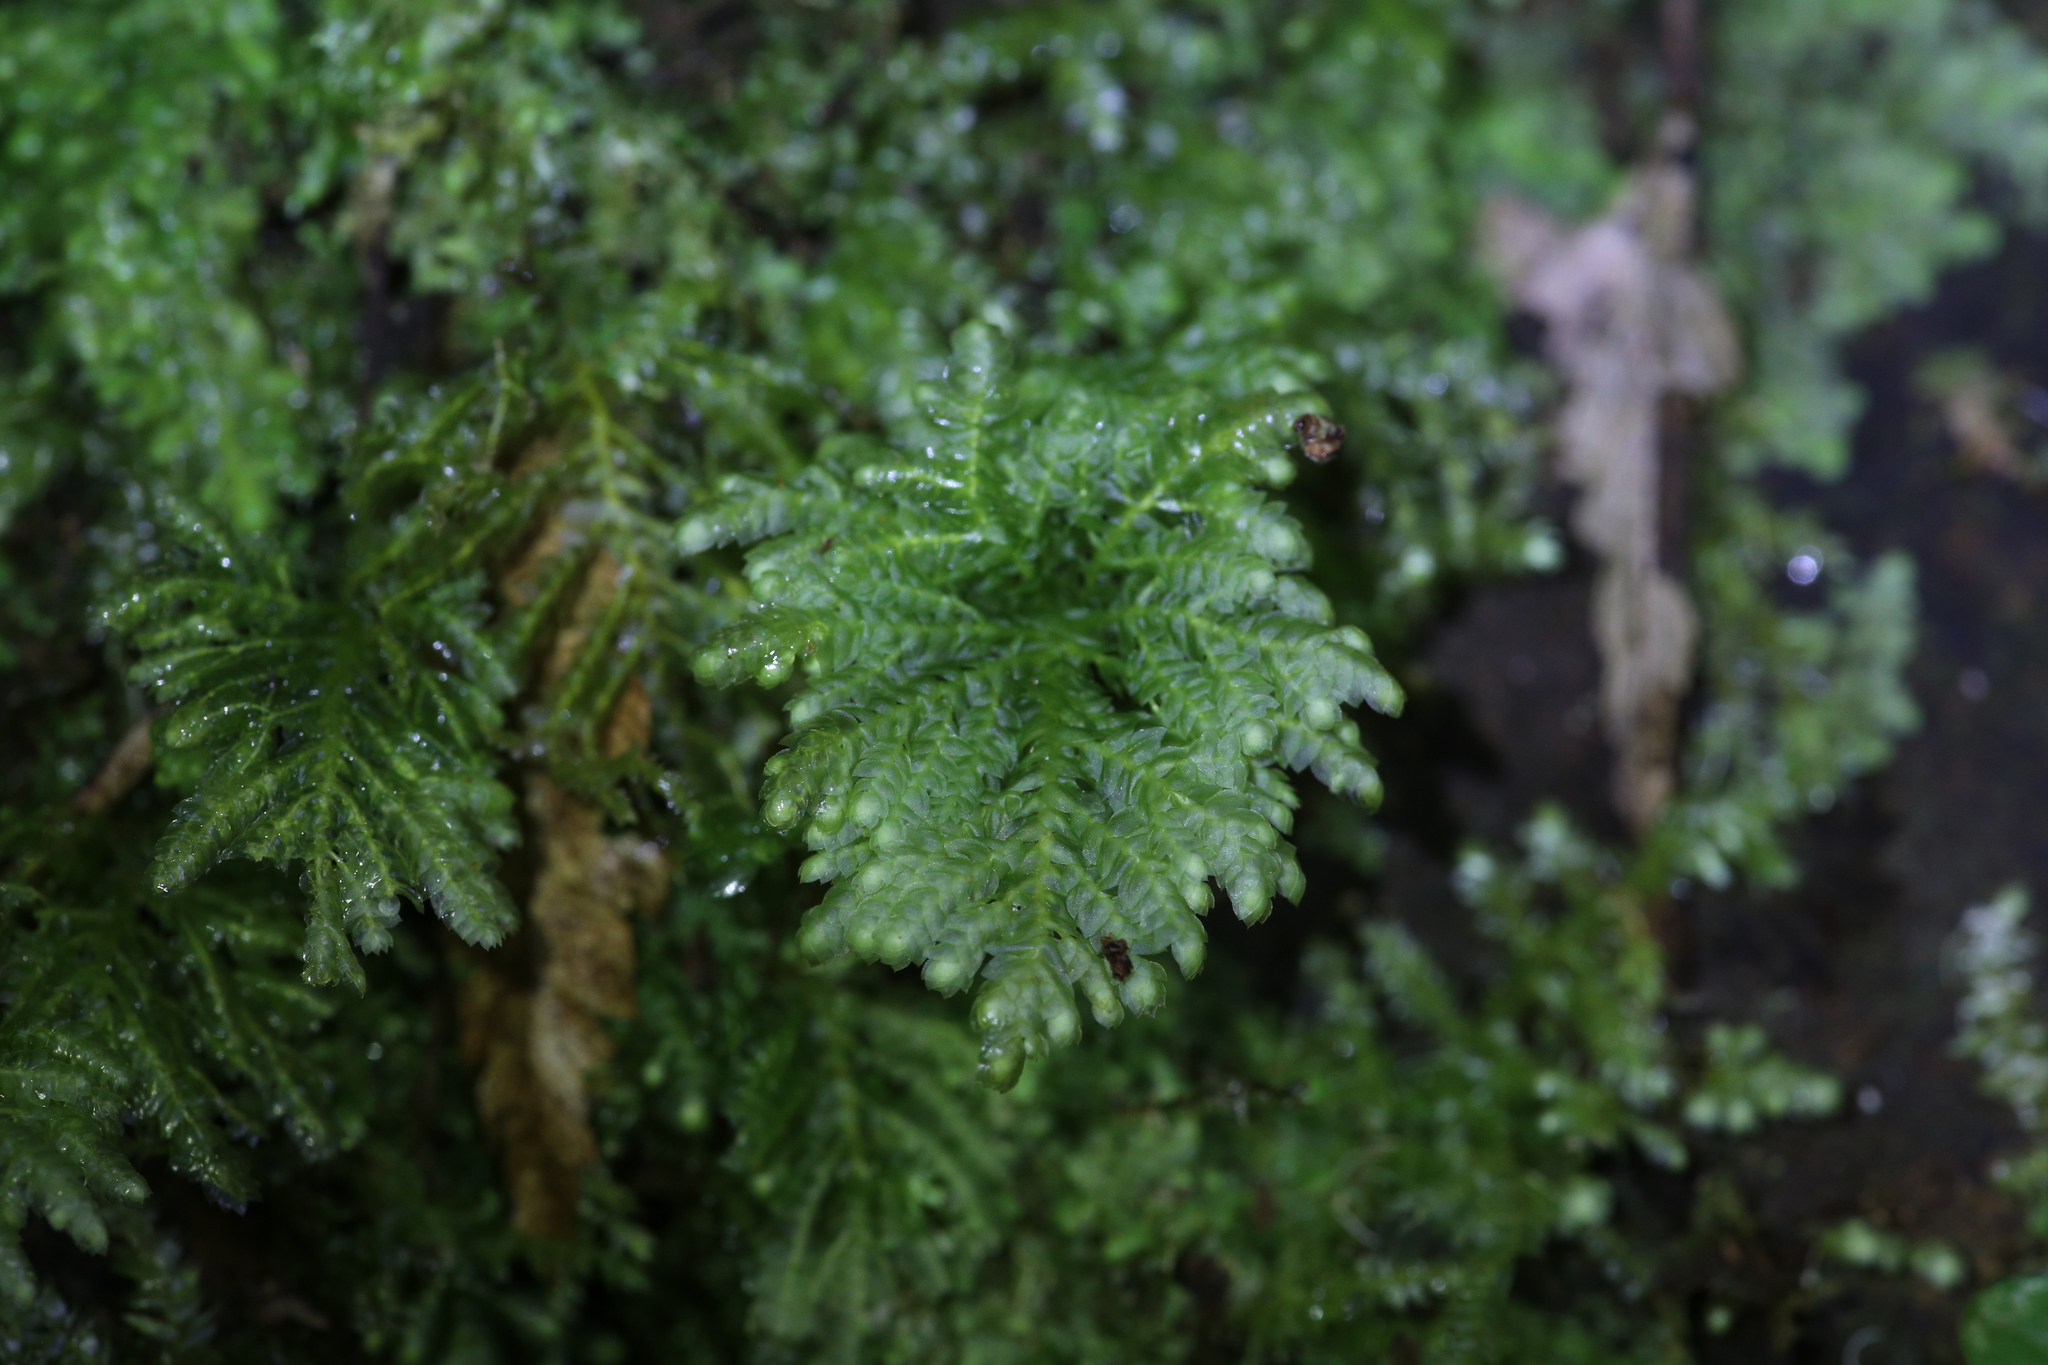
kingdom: Plantae
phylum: Bryophyta
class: Bryopsida
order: Hypopterygiales
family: Hypopterygiaceae
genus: Hypopterygium
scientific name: Hypopterygium didictyon
